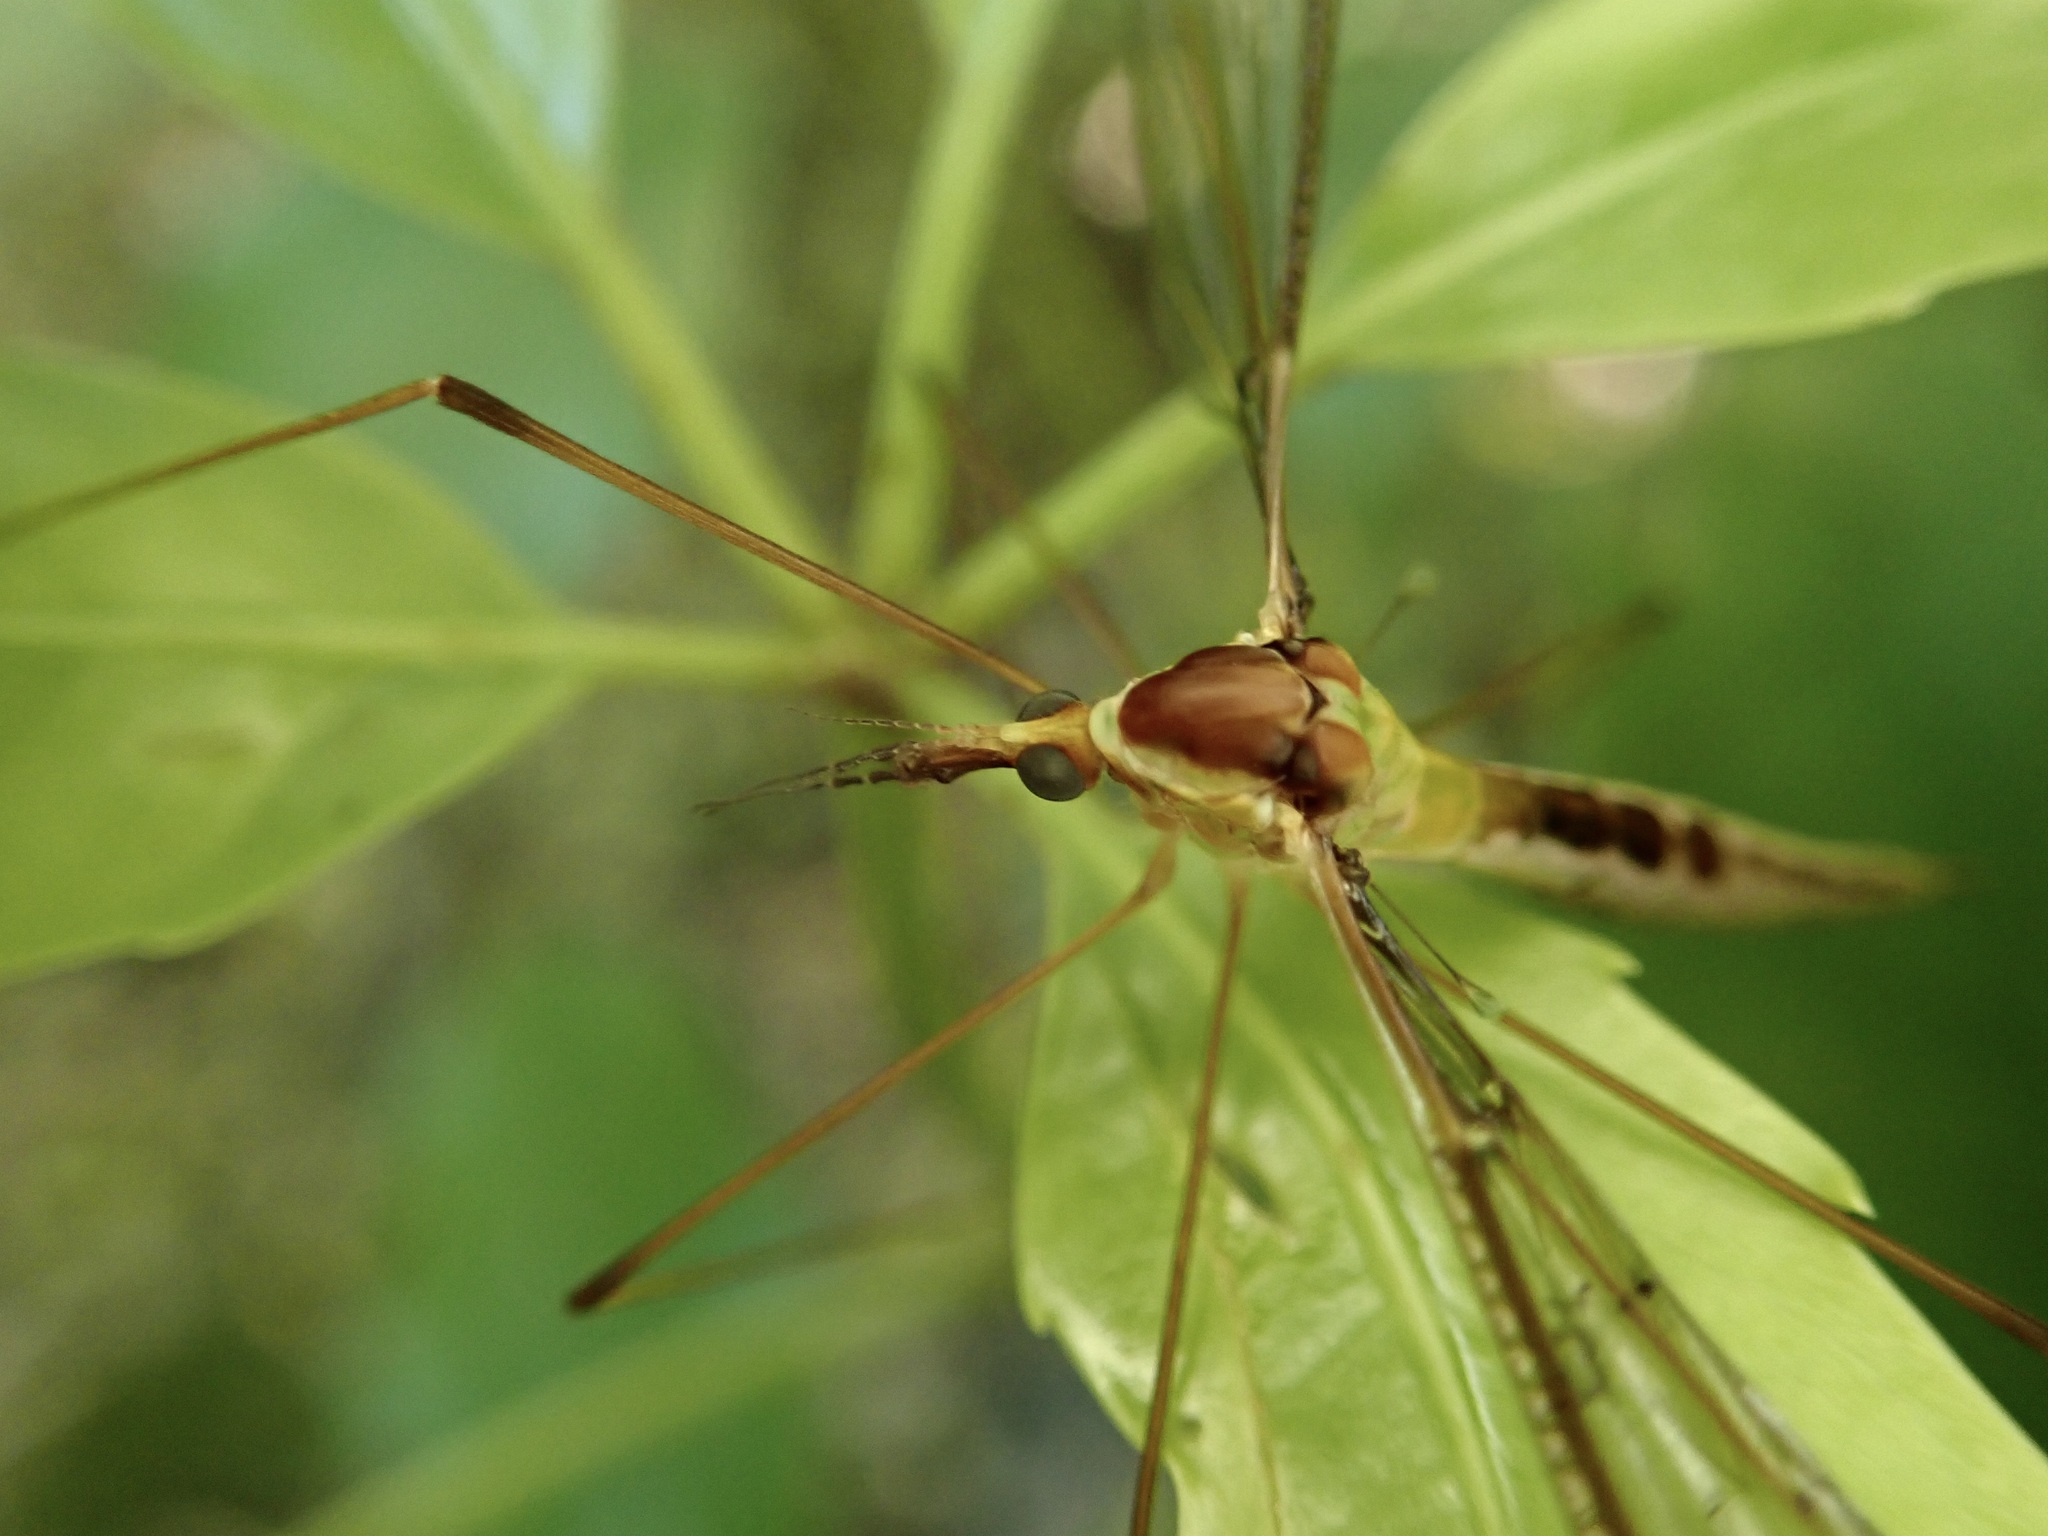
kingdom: Animalia
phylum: Arthropoda
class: Insecta
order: Diptera
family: Tipulidae
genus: Leptotarsus
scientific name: Leptotarsus albistigma
